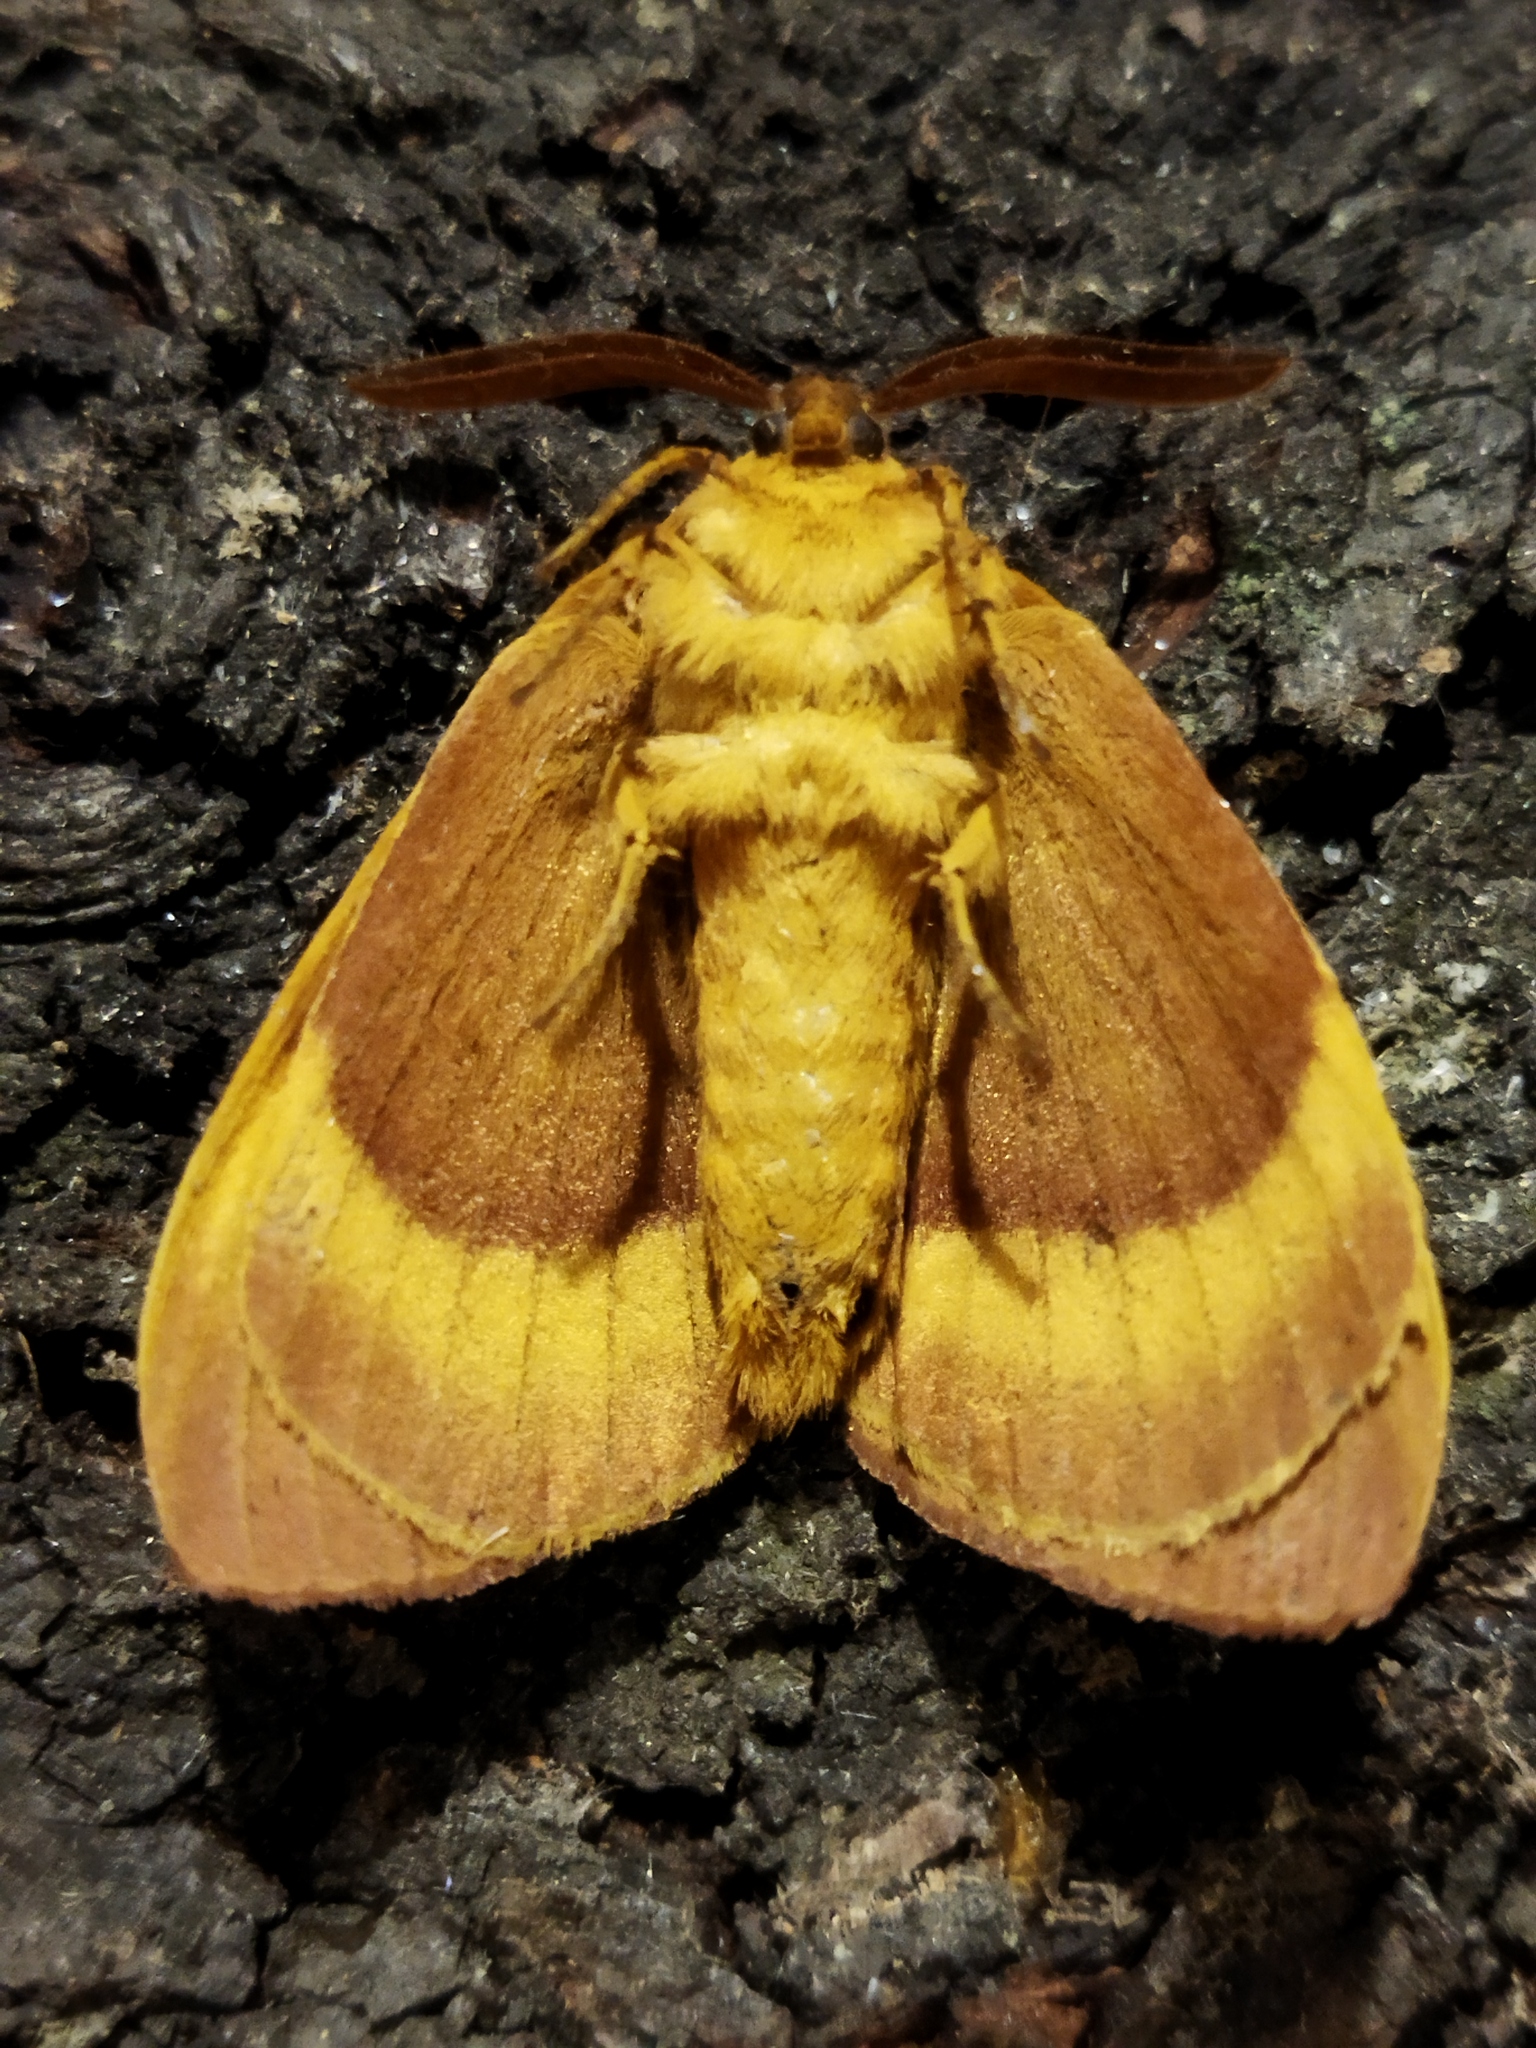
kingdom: Animalia
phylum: Arthropoda
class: Insecta
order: Lepidoptera
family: Lasiocampidae
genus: Lasiocampa
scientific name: Lasiocampa quercus
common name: Oak eggar
